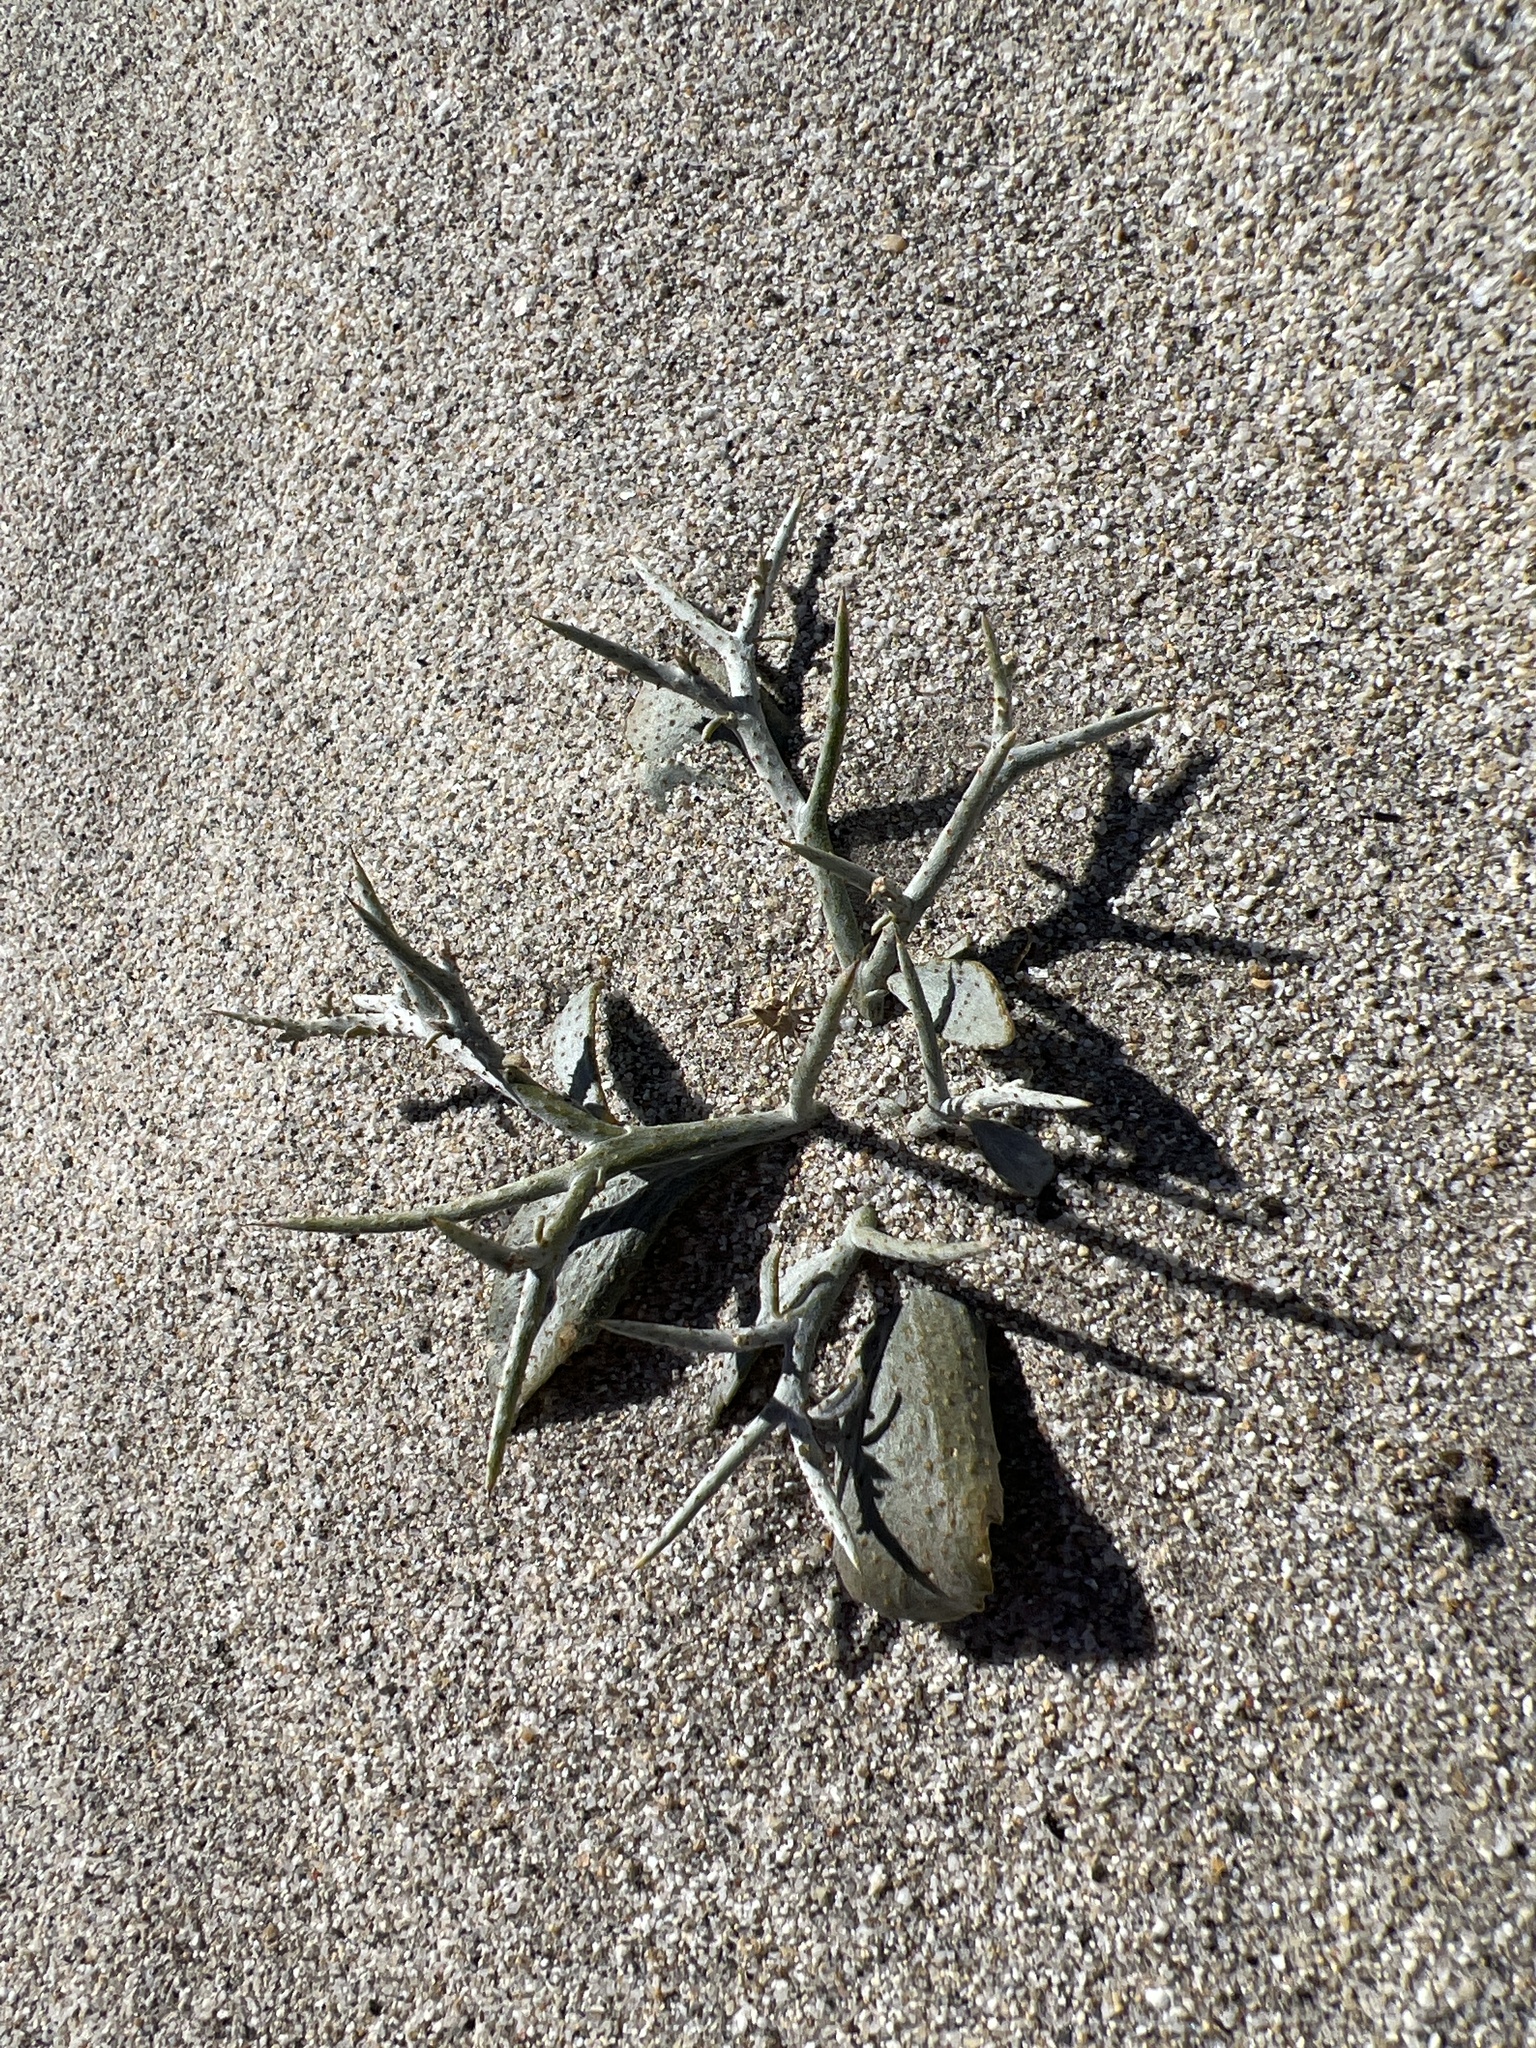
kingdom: Plantae
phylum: Tracheophyta
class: Magnoliopsida
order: Fabales
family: Fabaceae
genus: Psorothamnus
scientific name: Psorothamnus spinosus
